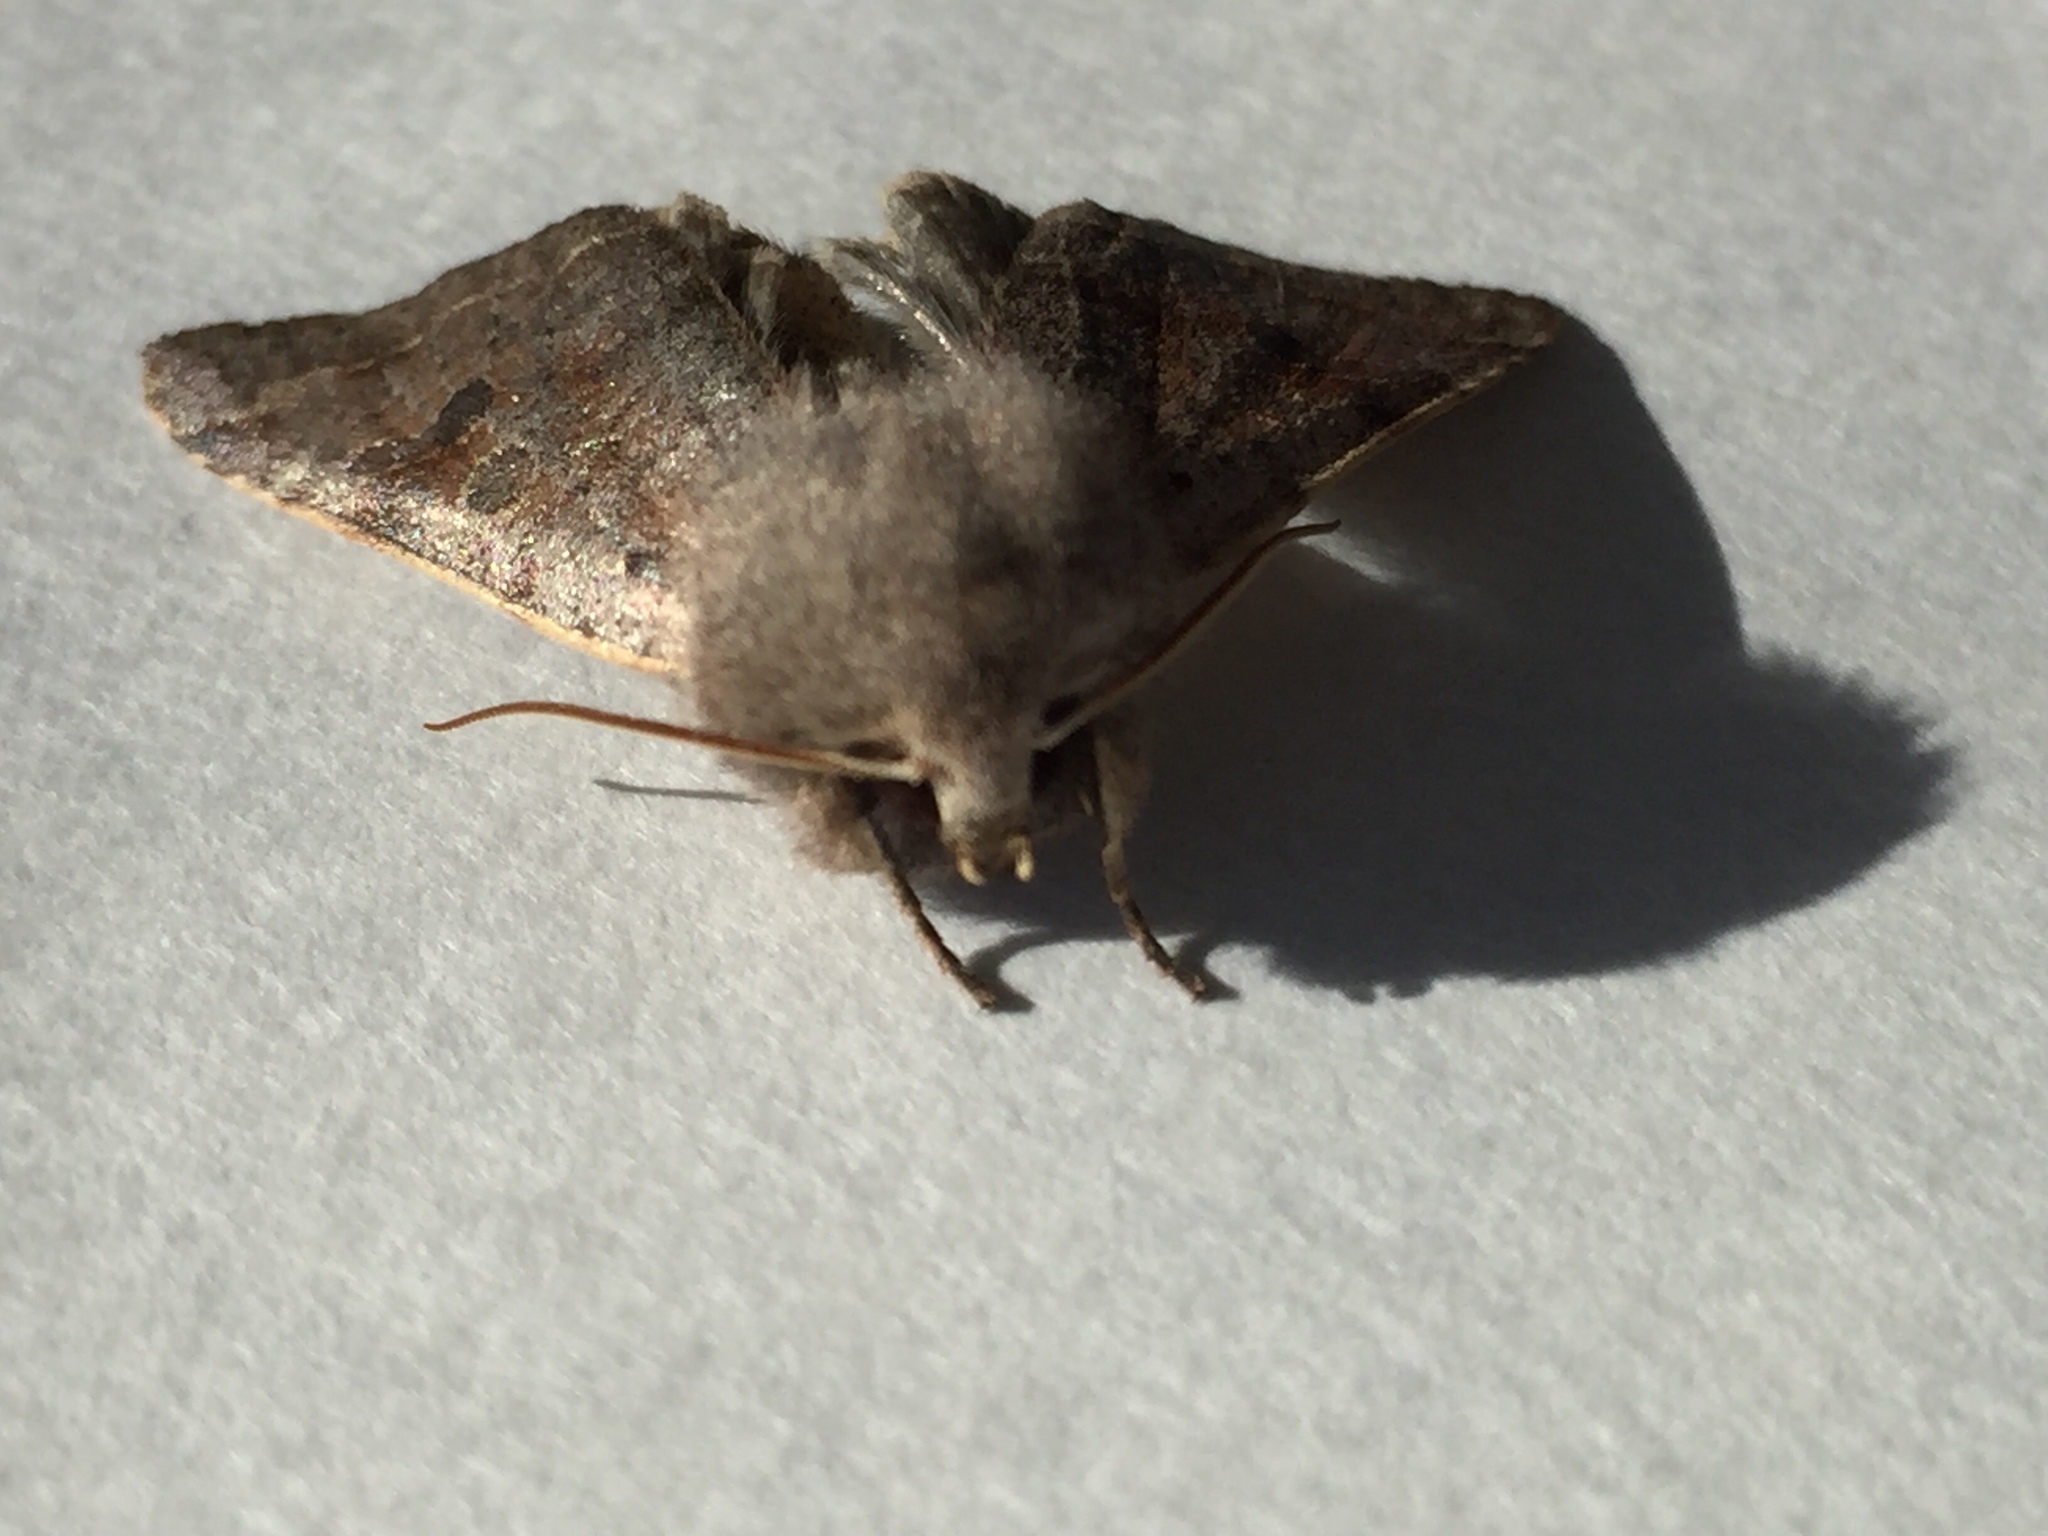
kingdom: Animalia
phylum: Arthropoda
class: Insecta
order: Lepidoptera
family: Noctuidae
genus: Orthosia
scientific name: Orthosia hibisci
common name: Green fruitworm
